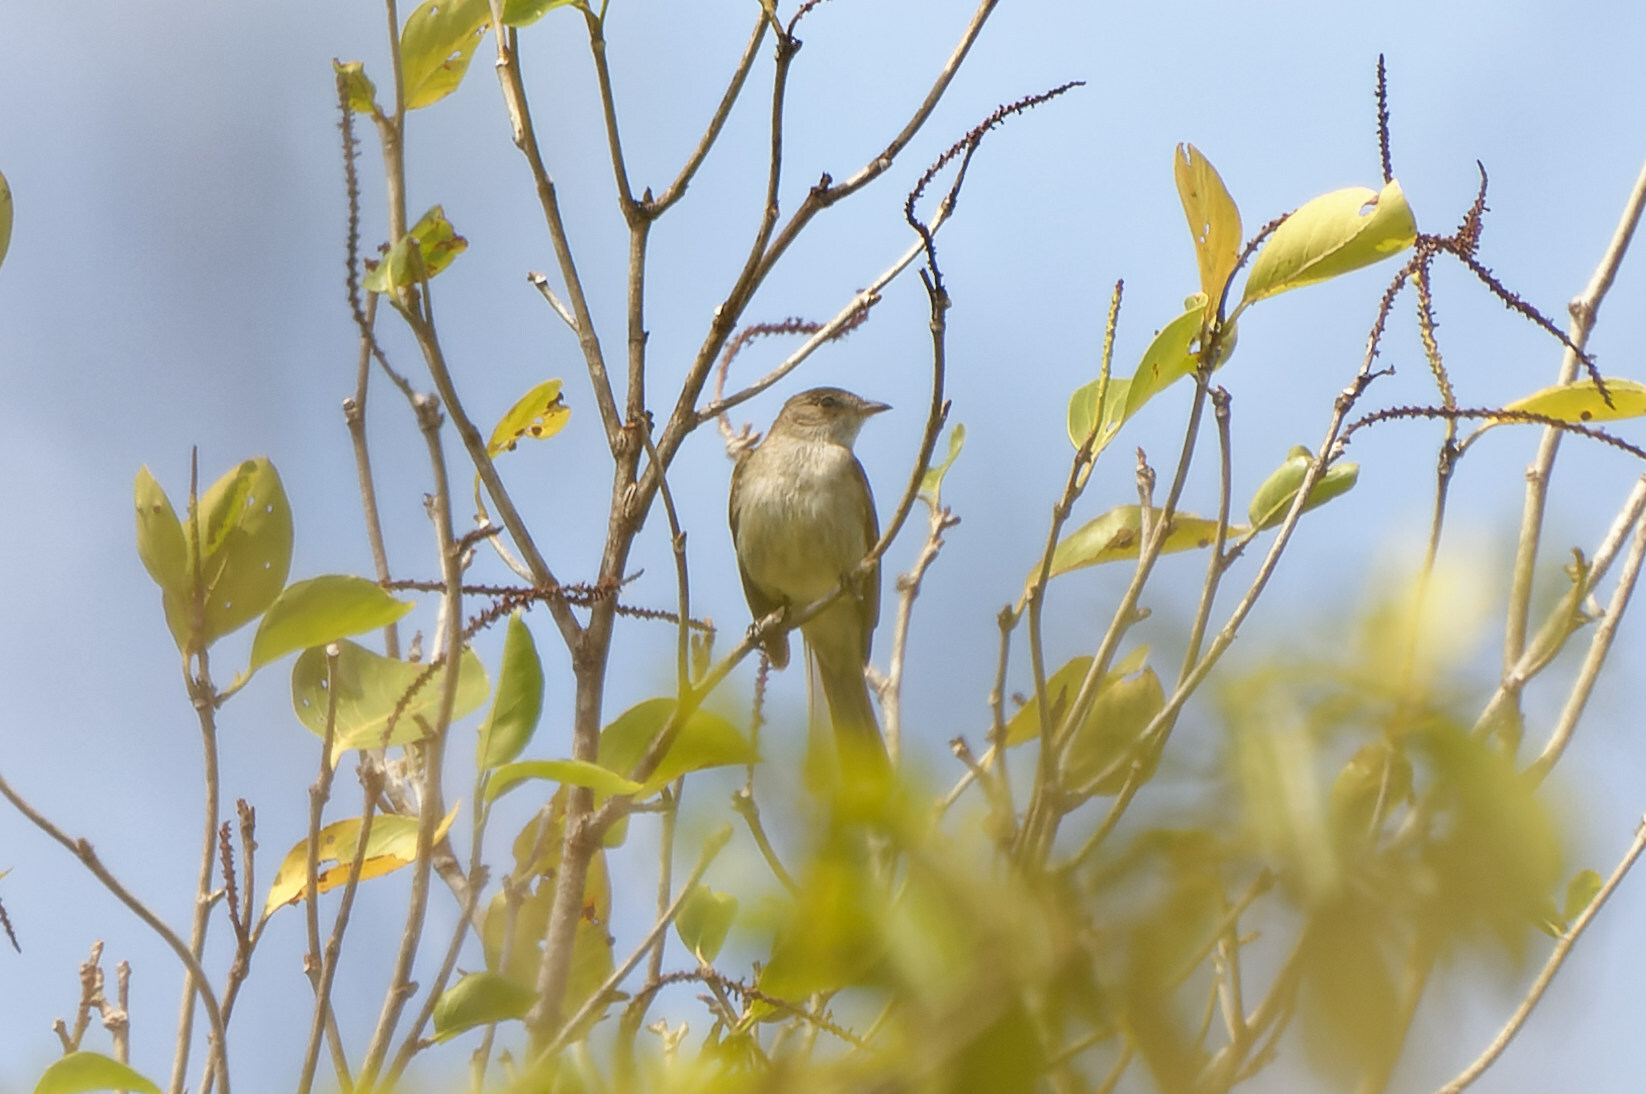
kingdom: Animalia
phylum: Chordata
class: Aves
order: Passeriformes
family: Tyrannidae
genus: Elaenia
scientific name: Elaenia martinica
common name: Caribbean elaenia
